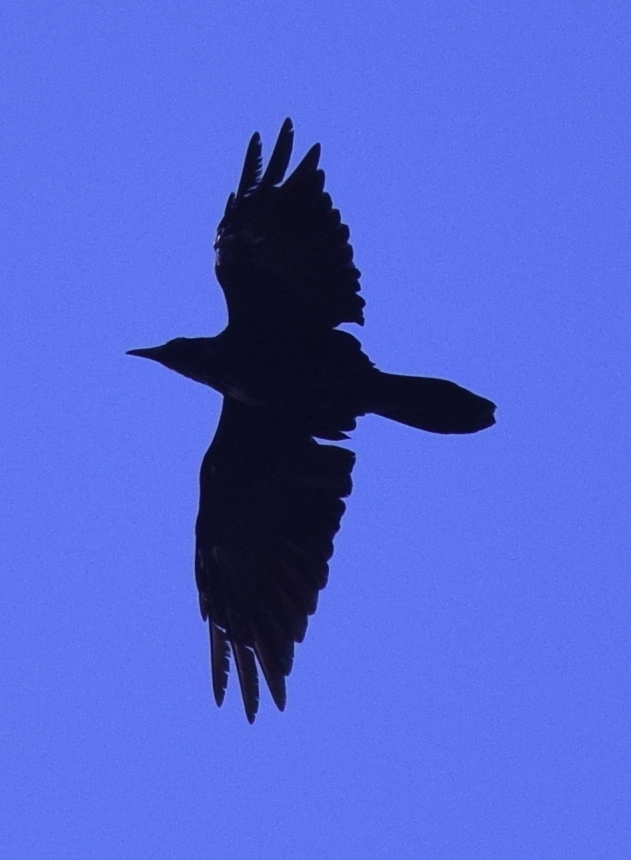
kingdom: Animalia
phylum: Chordata
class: Aves
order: Passeriformes
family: Corvidae
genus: Corvus
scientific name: Corvus corax
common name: Common raven
